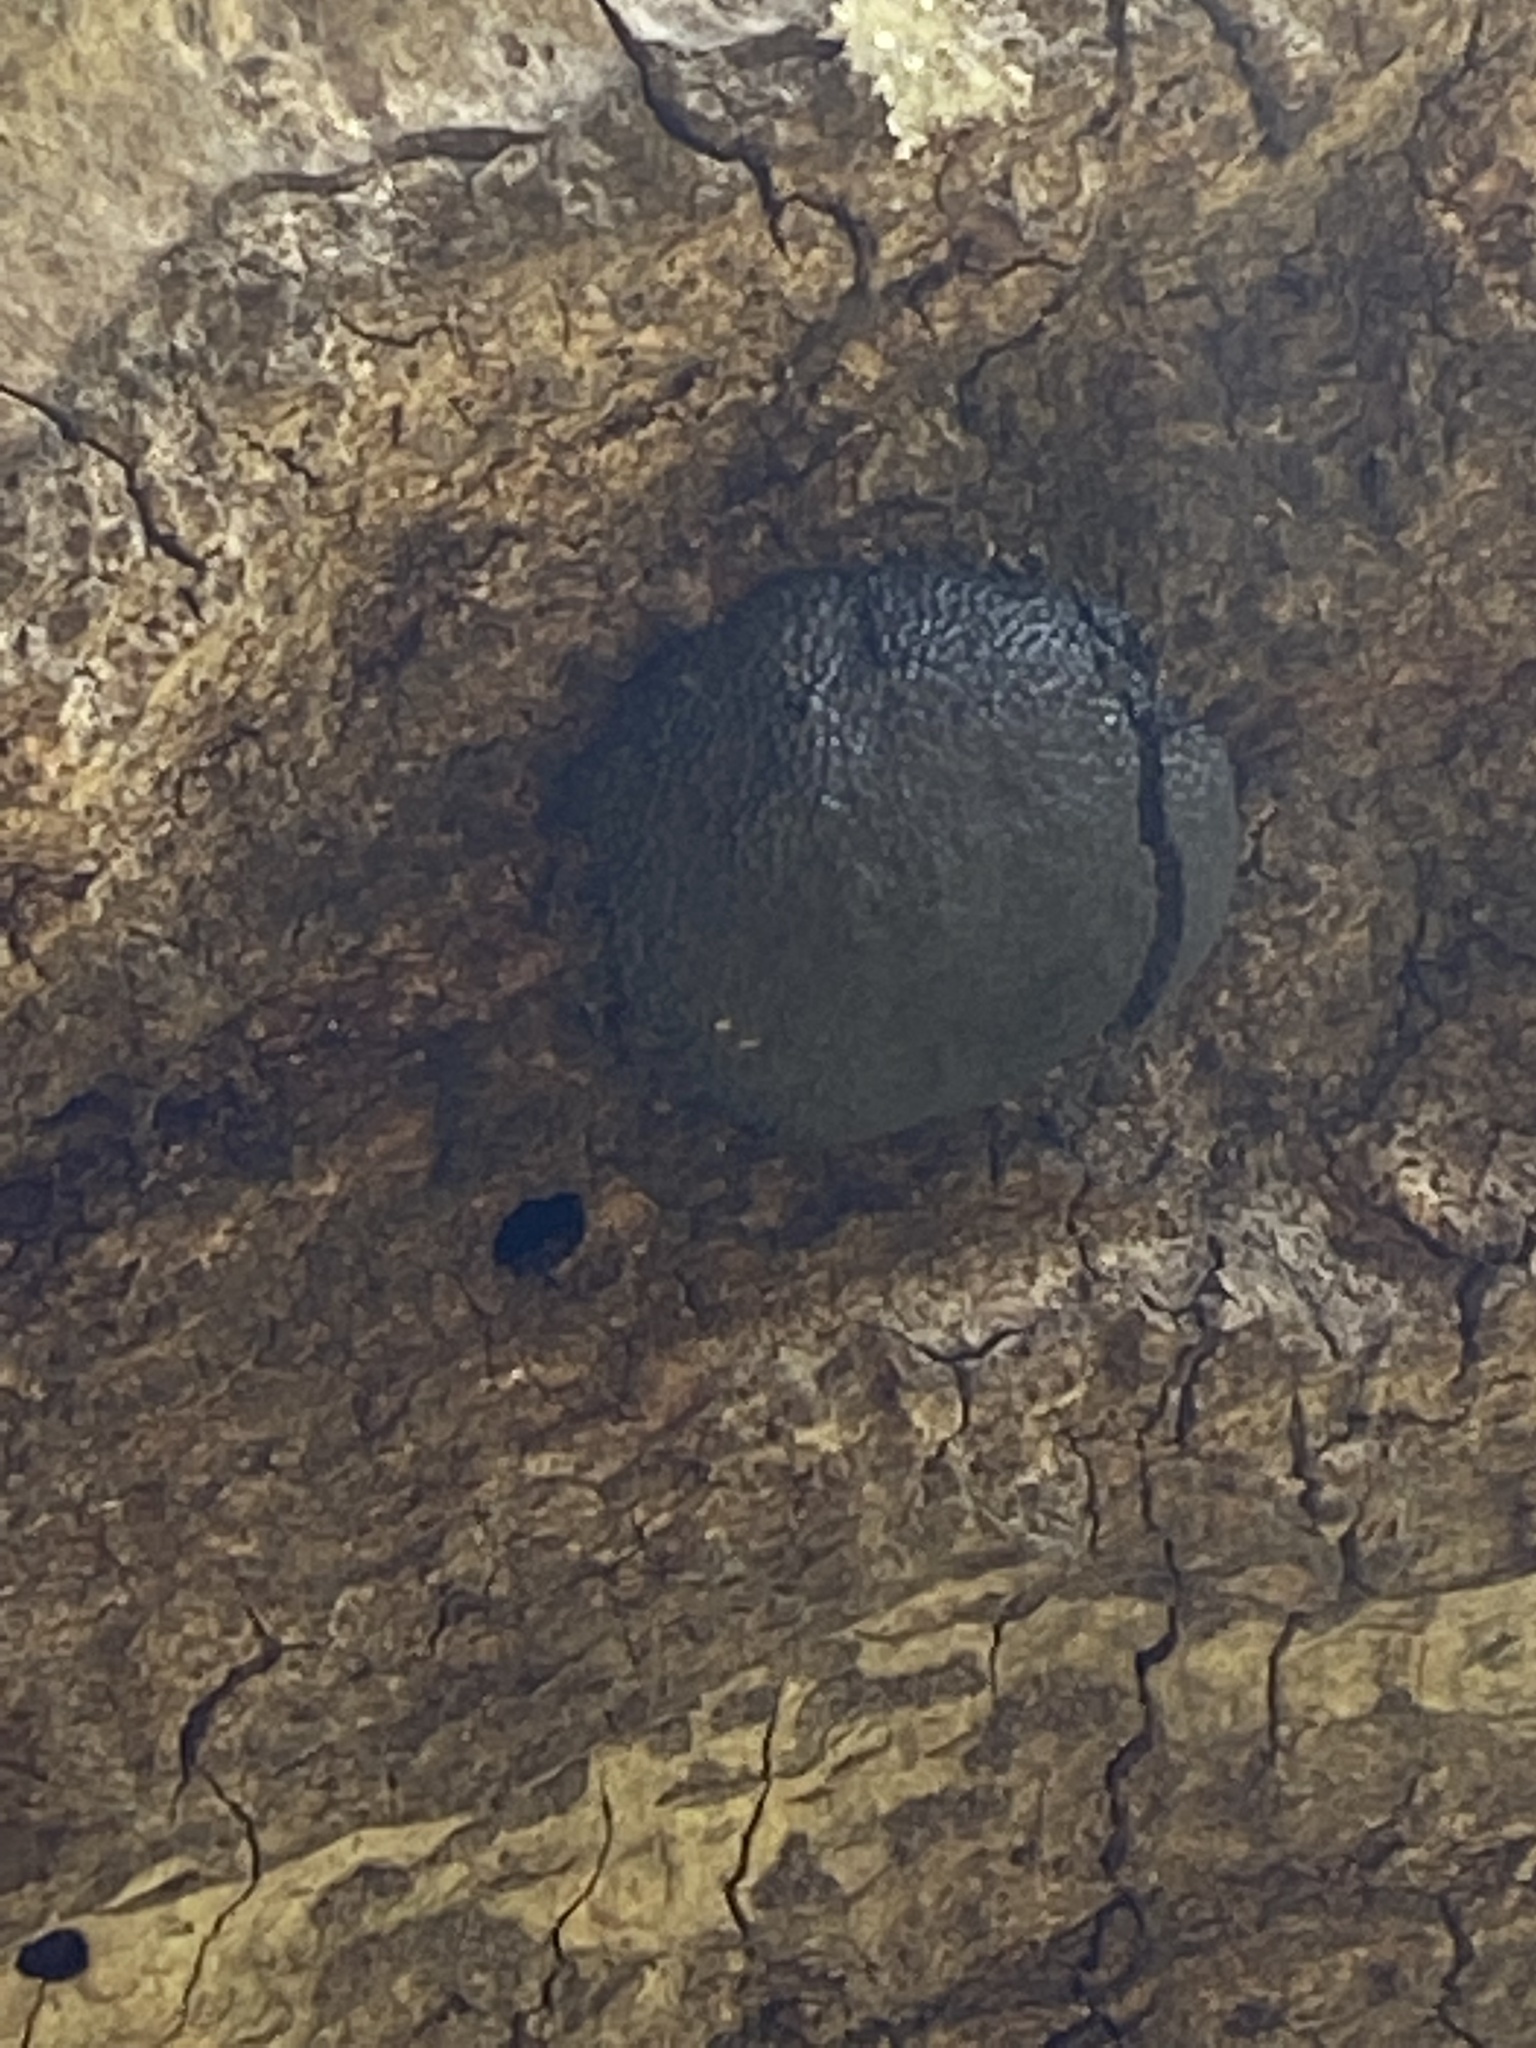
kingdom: Fungi
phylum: Ascomycota
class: Sordariomycetes
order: Xylariales
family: Hypoxylaceae
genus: Annulohypoxylon
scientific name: Annulohypoxylon thouarsianum
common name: Cramp balls
